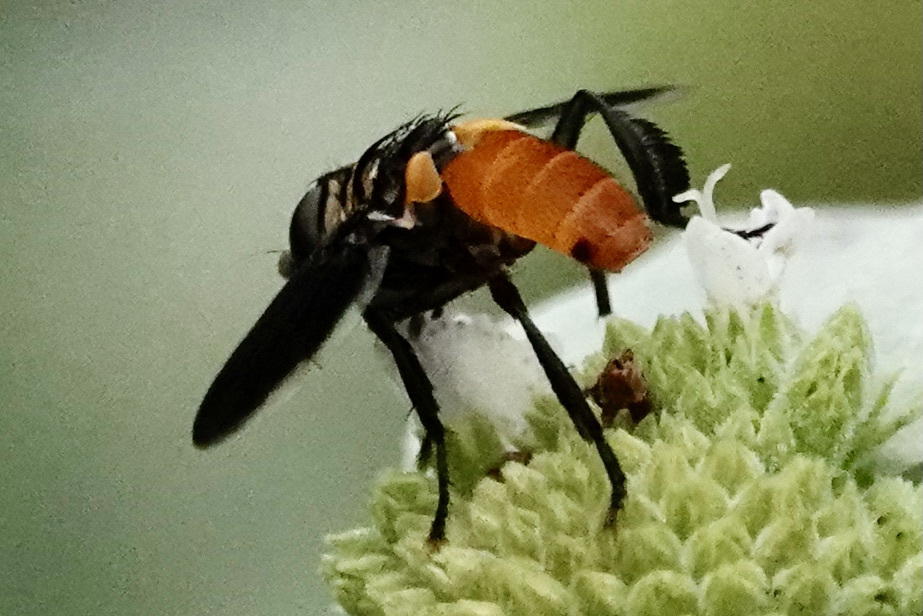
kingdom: Animalia
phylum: Arthropoda
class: Insecta
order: Diptera
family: Tachinidae
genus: Trichopoda
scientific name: Trichopoda pennipes
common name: Tachinid fly
